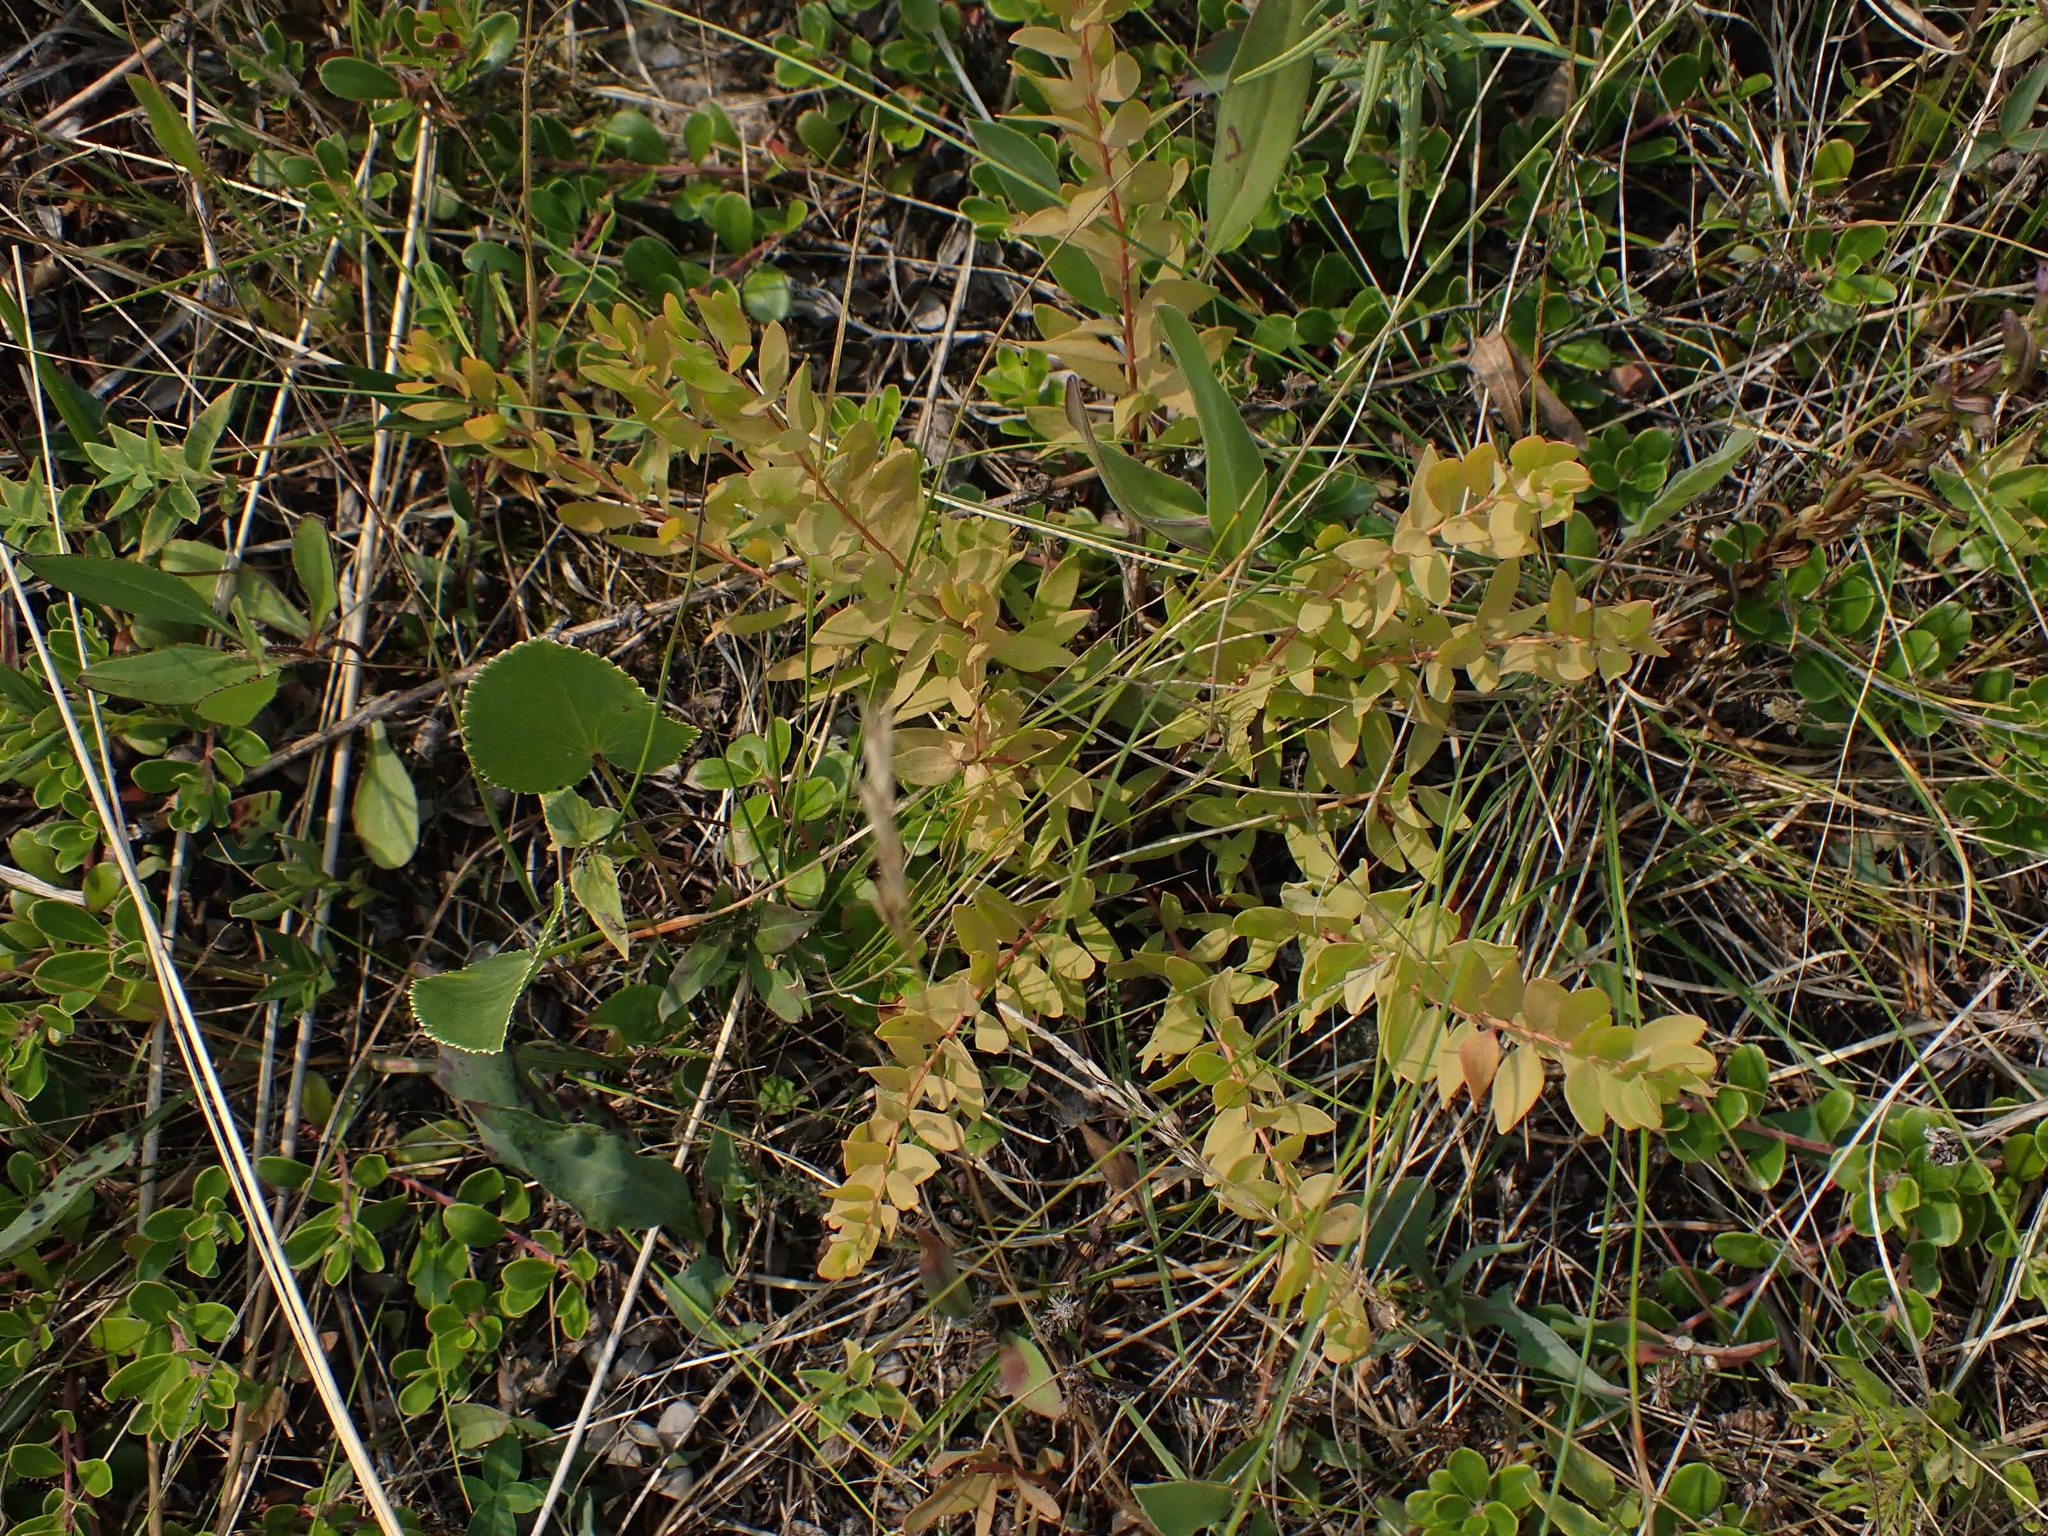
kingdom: Plantae
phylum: Tracheophyta
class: Magnoliopsida
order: Santalales
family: Comandraceae
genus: Comandra
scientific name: Comandra umbellata
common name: Bastard toadflax
